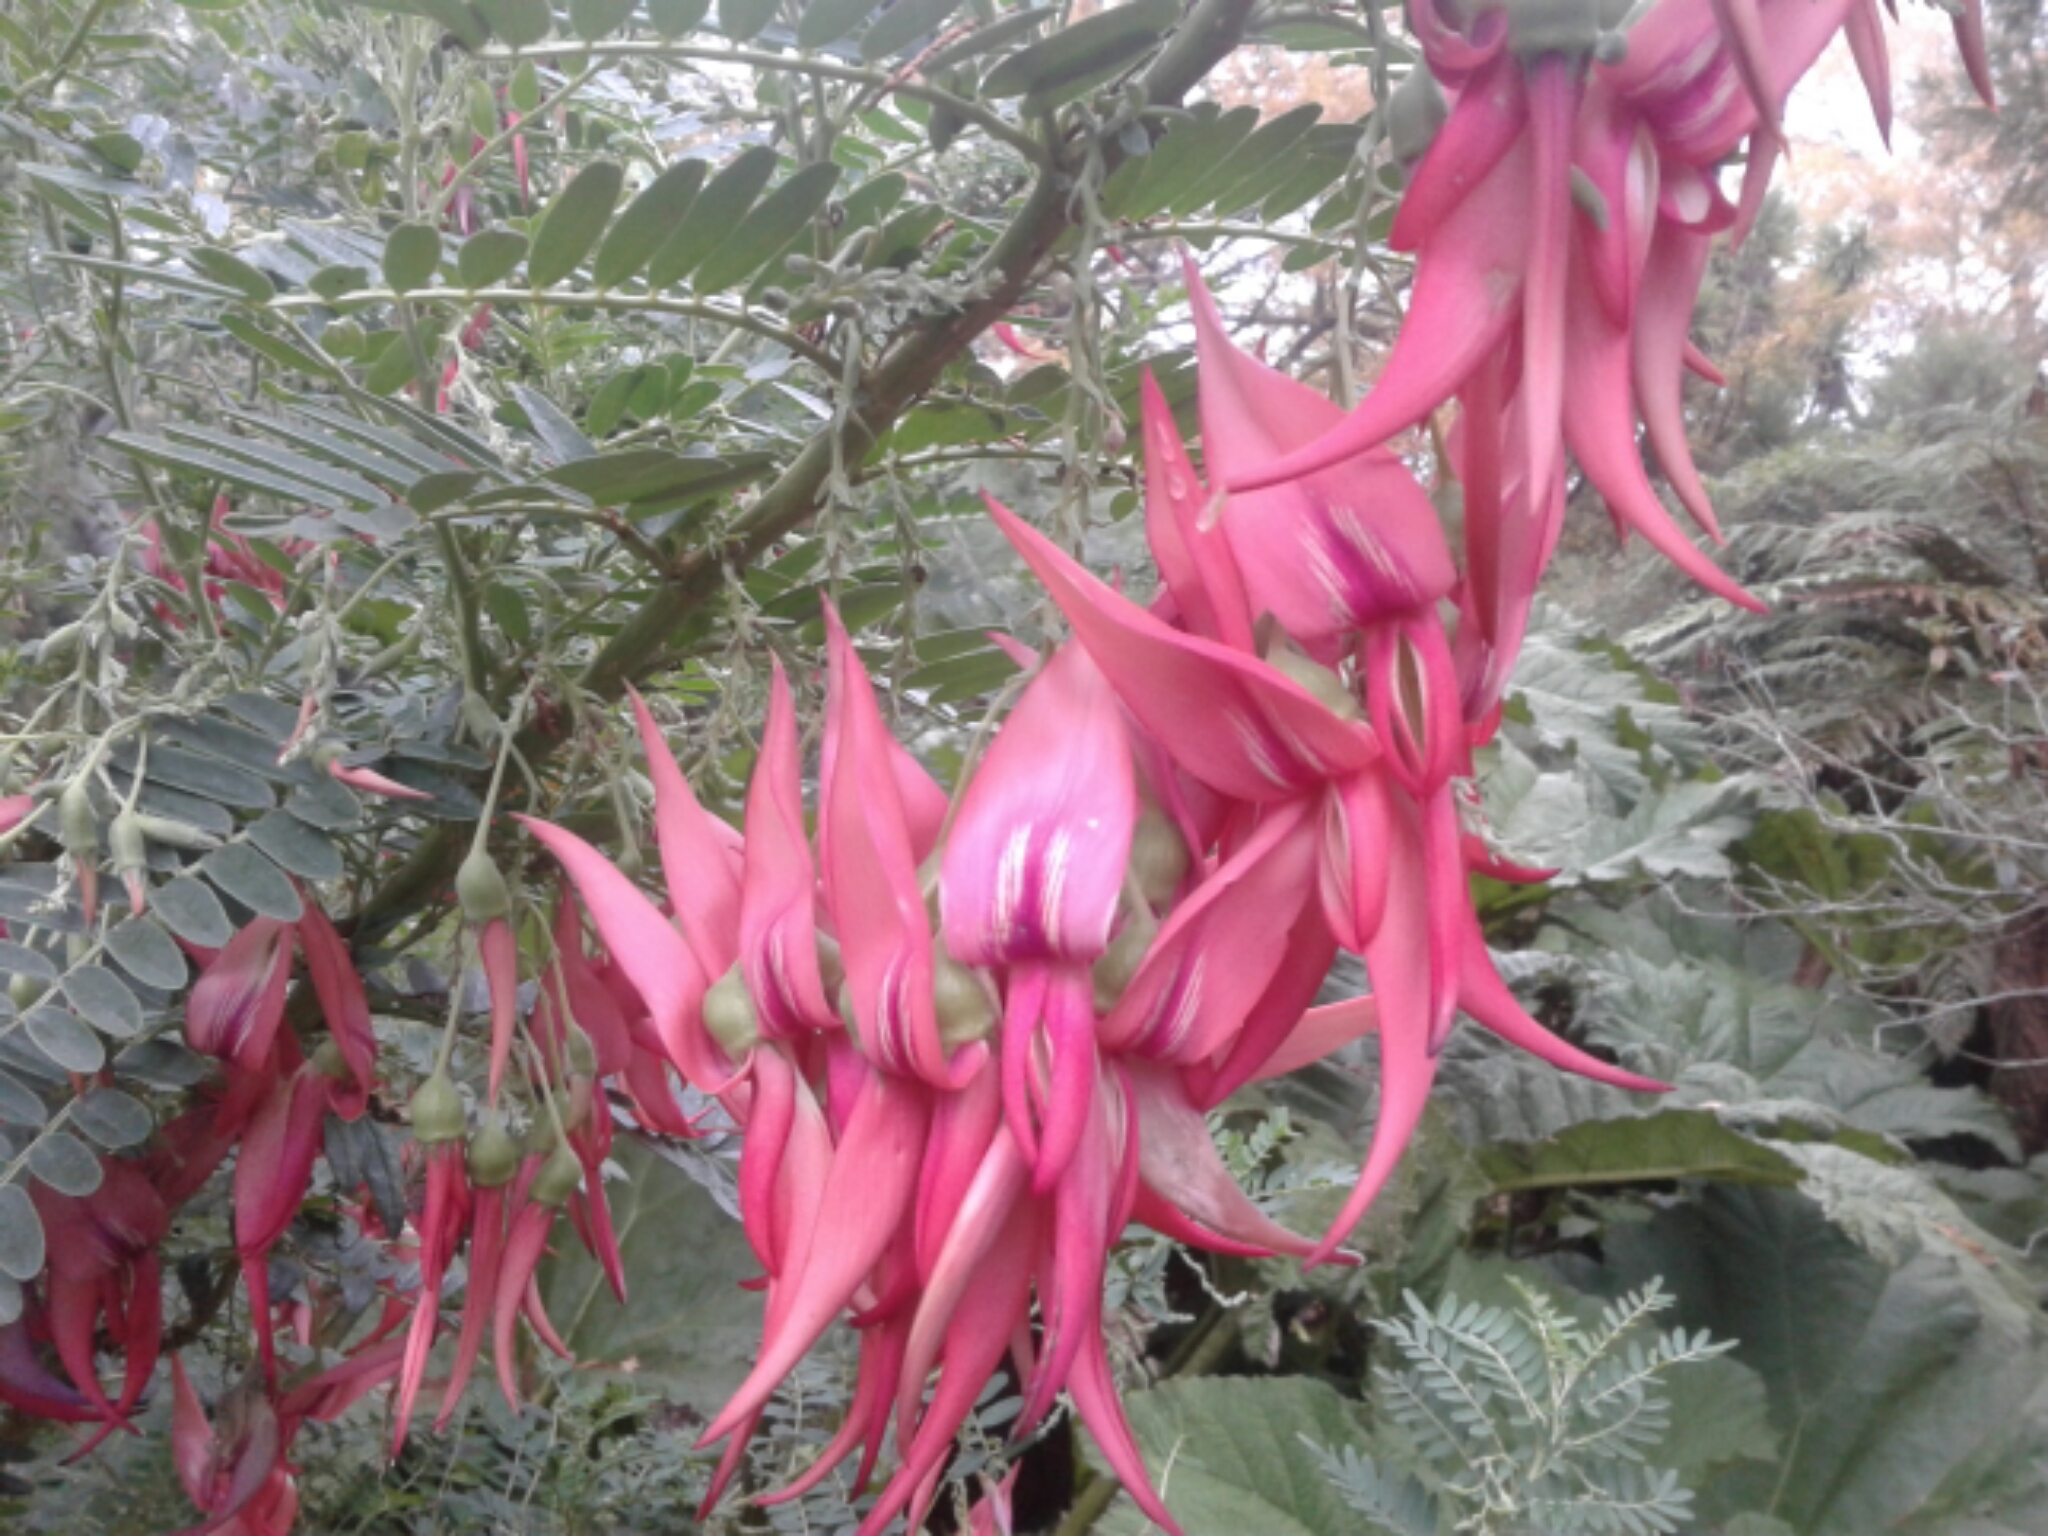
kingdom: Plantae
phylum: Tracheophyta
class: Magnoliopsida
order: Fabales
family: Fabaceae
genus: Clianthus
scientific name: Clianthus puniceus
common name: Kaka-beak
